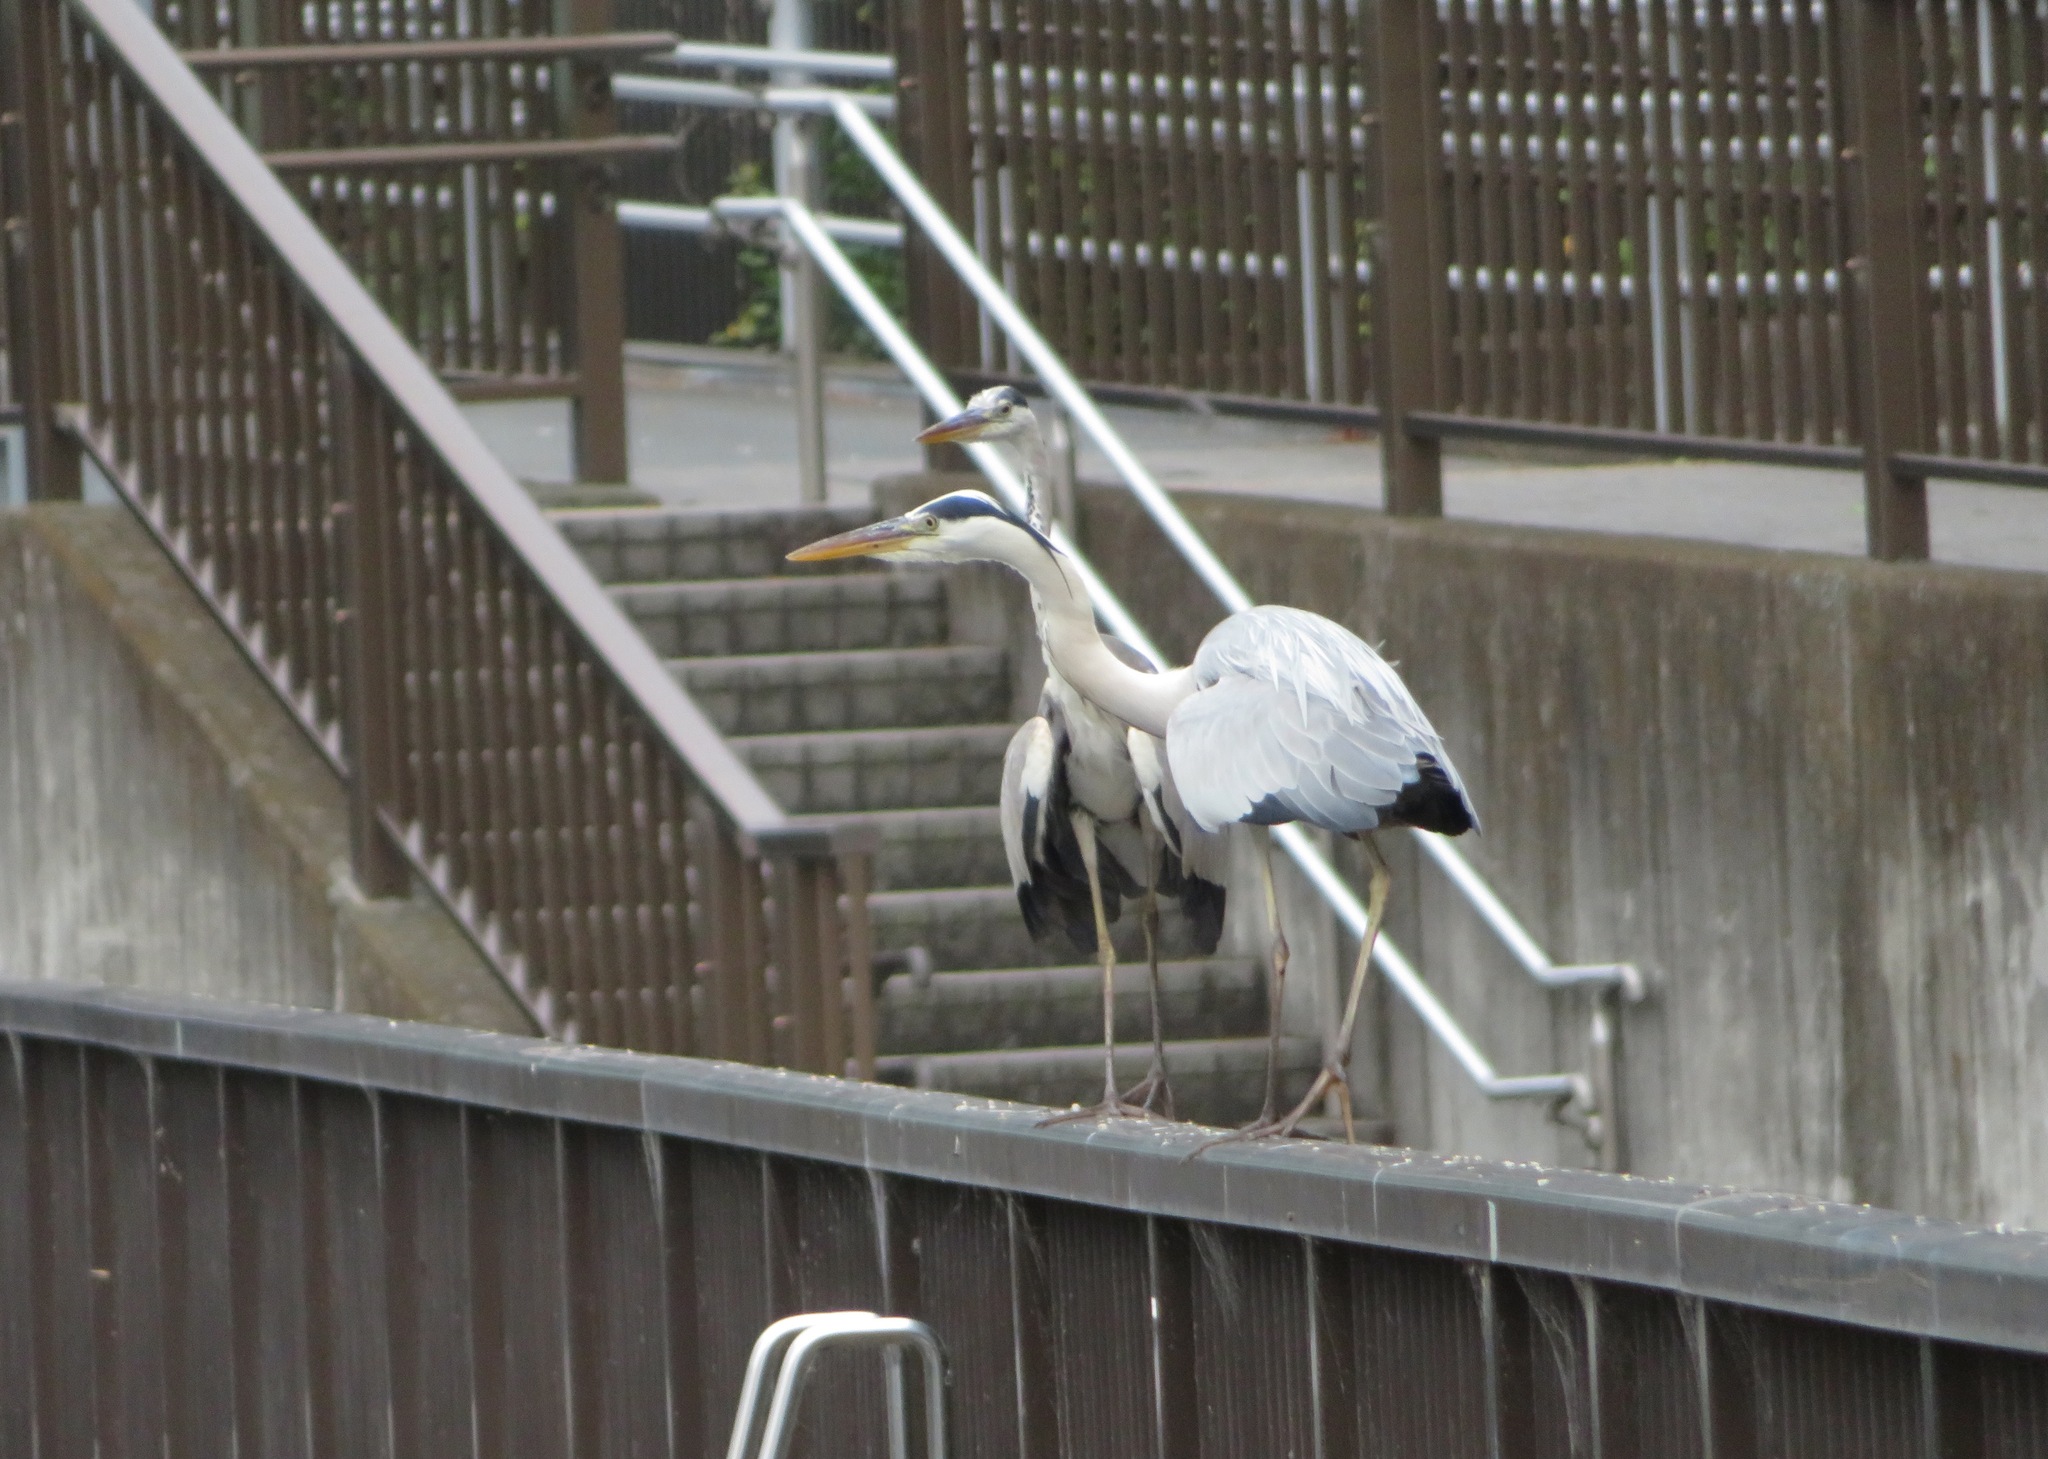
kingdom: Animalia
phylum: Chordata
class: Aves
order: Pelecaniformes
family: Ardeidae
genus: Ardea
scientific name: Ardea cinerea
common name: Grey heron
